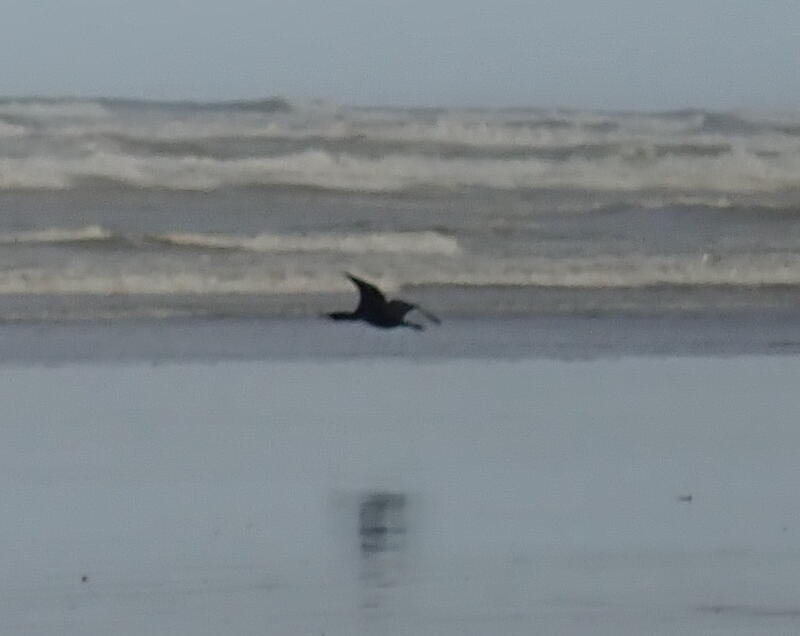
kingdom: Animalia
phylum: Chordata
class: Aves
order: Suliformes
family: Phalacrocoracidae
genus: Phalacrocorax
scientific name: Phalacrocorax carbo
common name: Great cormorant
